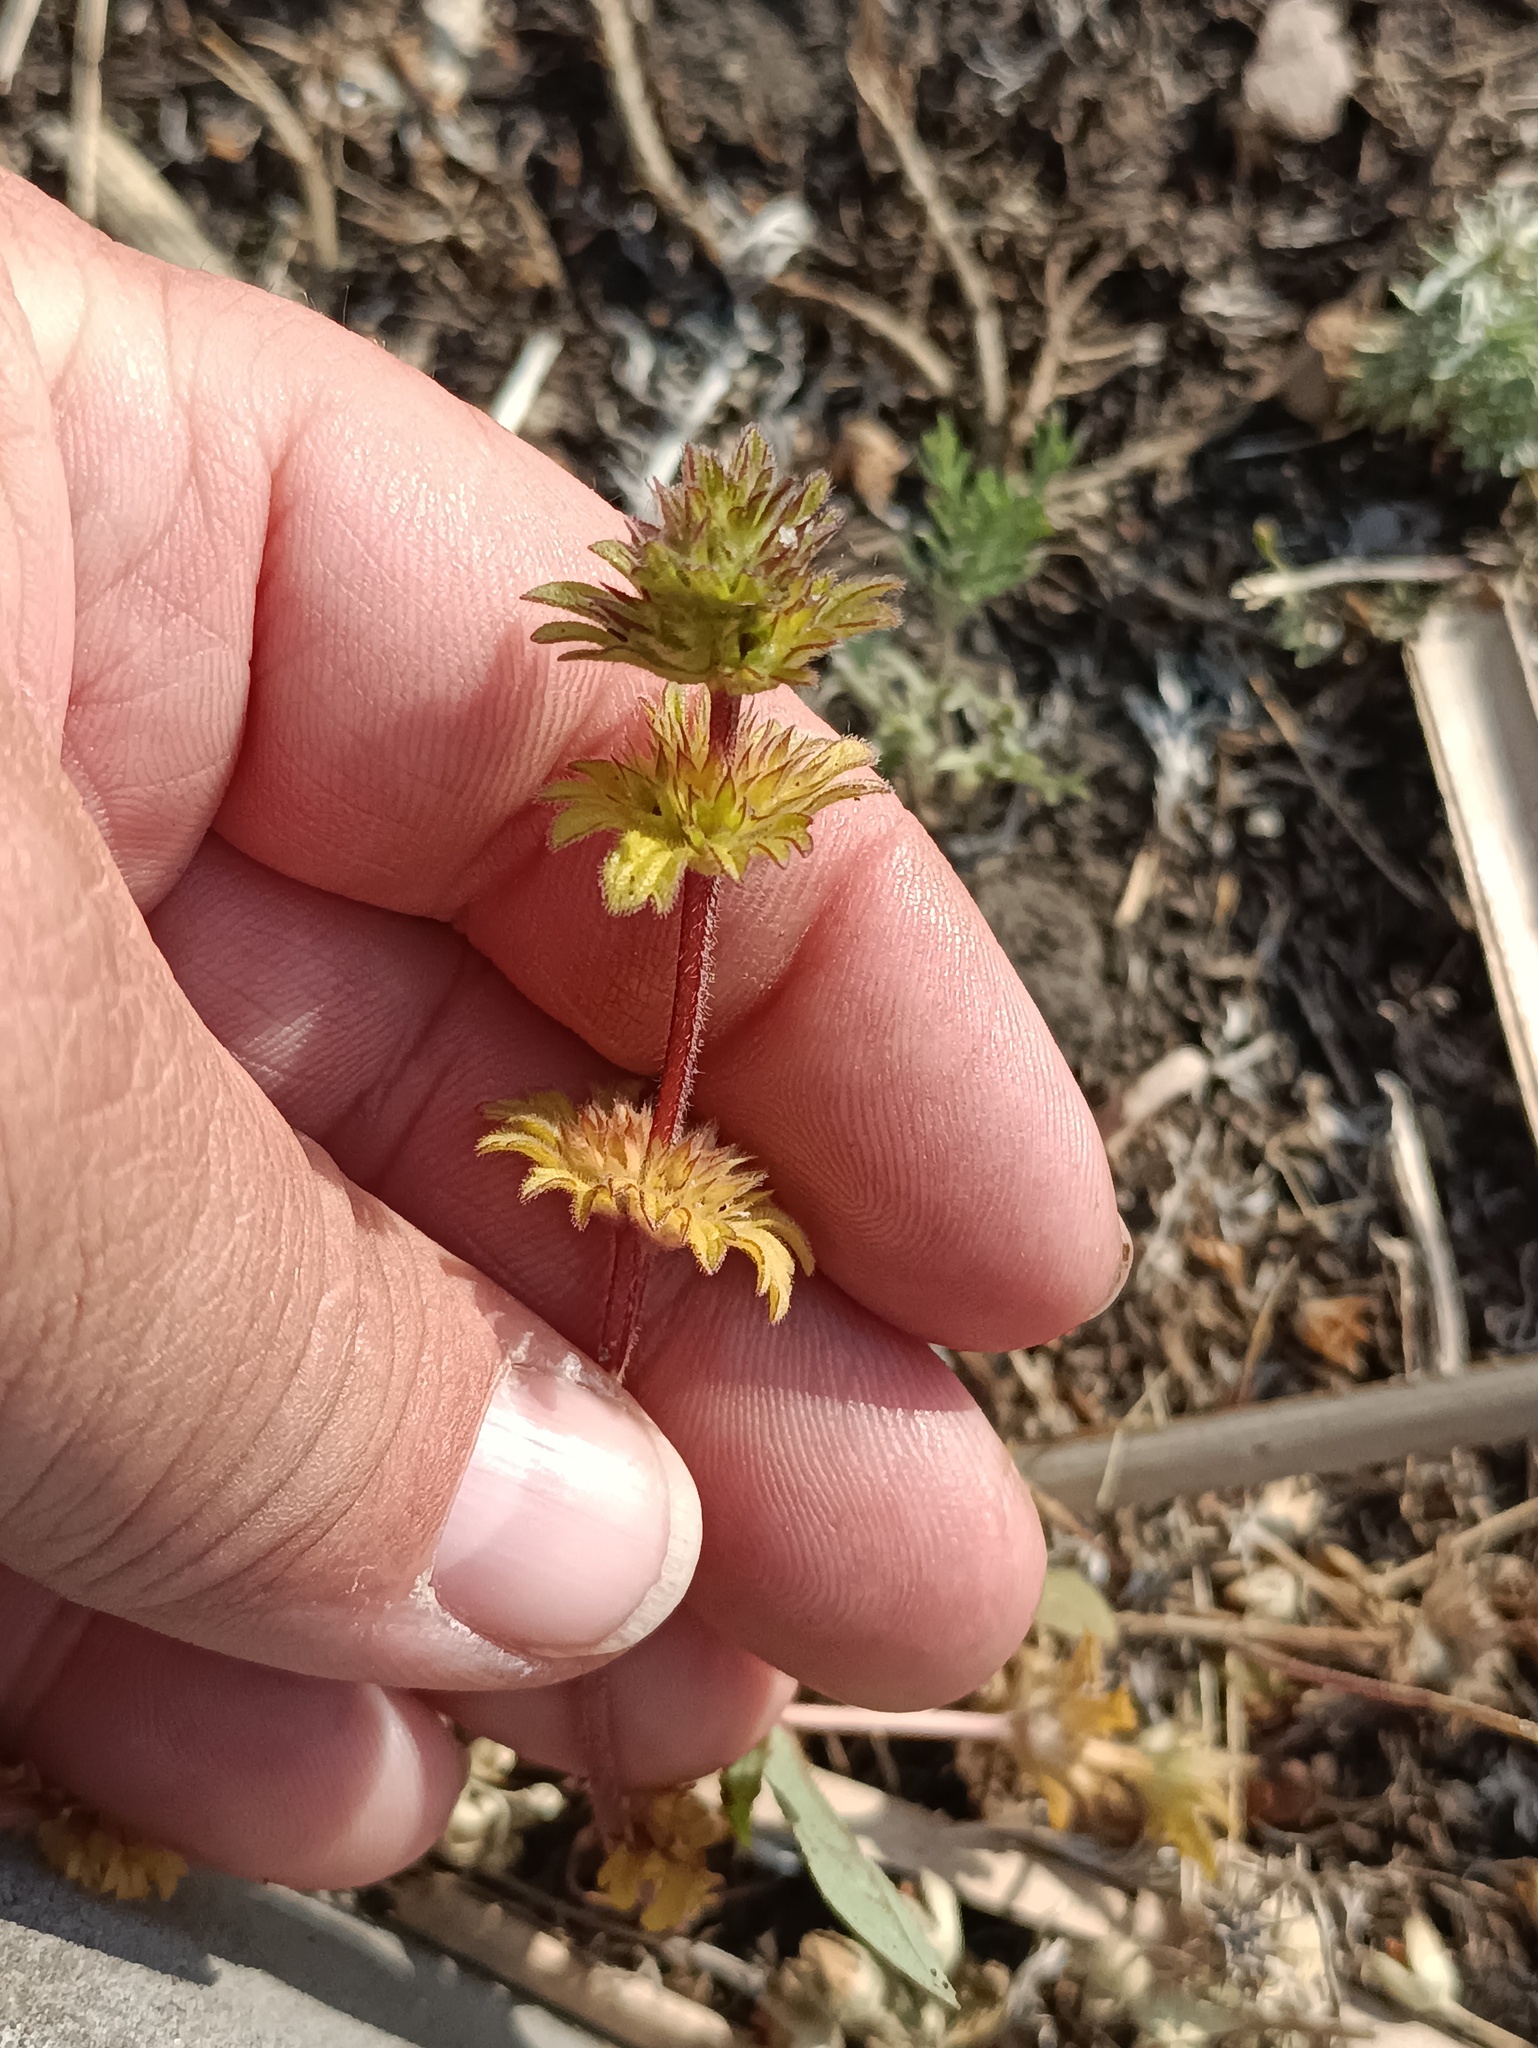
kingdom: Plantae
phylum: Tracheophyta
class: Magnoliopsida
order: Lamiales
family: Lamiaceae
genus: Lamium
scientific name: Lamium amplexicaule
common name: Henbit dead-nettle
